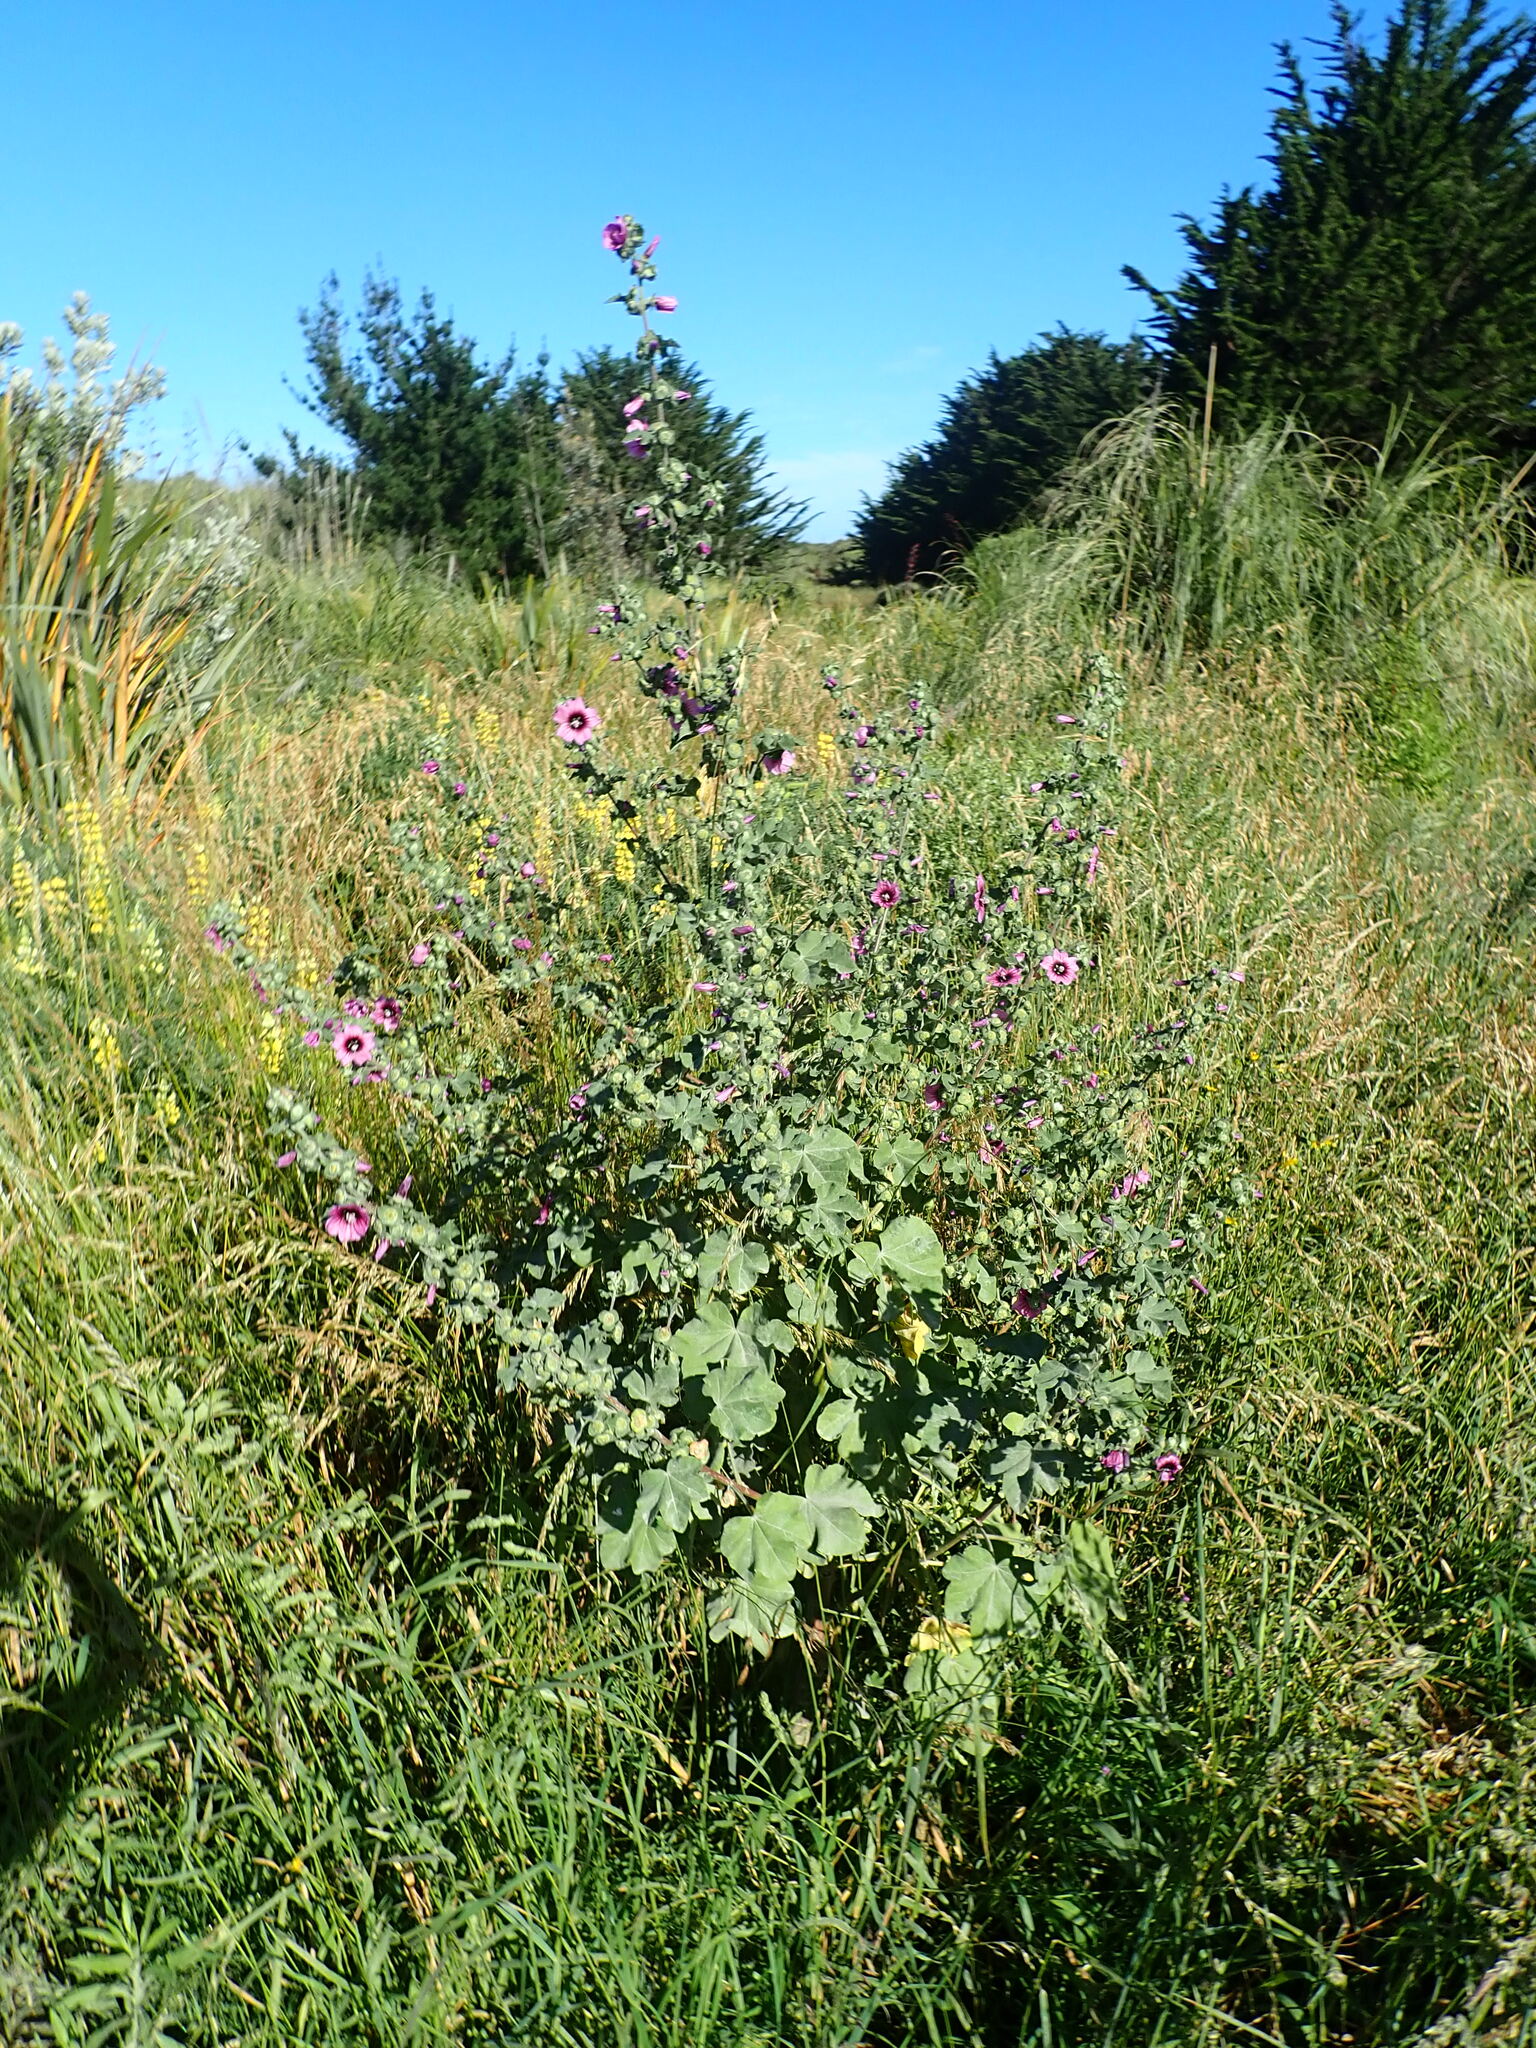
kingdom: Plantae
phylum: Tracheophyta
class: Magnoliopsida
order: Malvales
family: Malvaceae
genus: Malva
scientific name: Malva arborea
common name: Tree mallow
